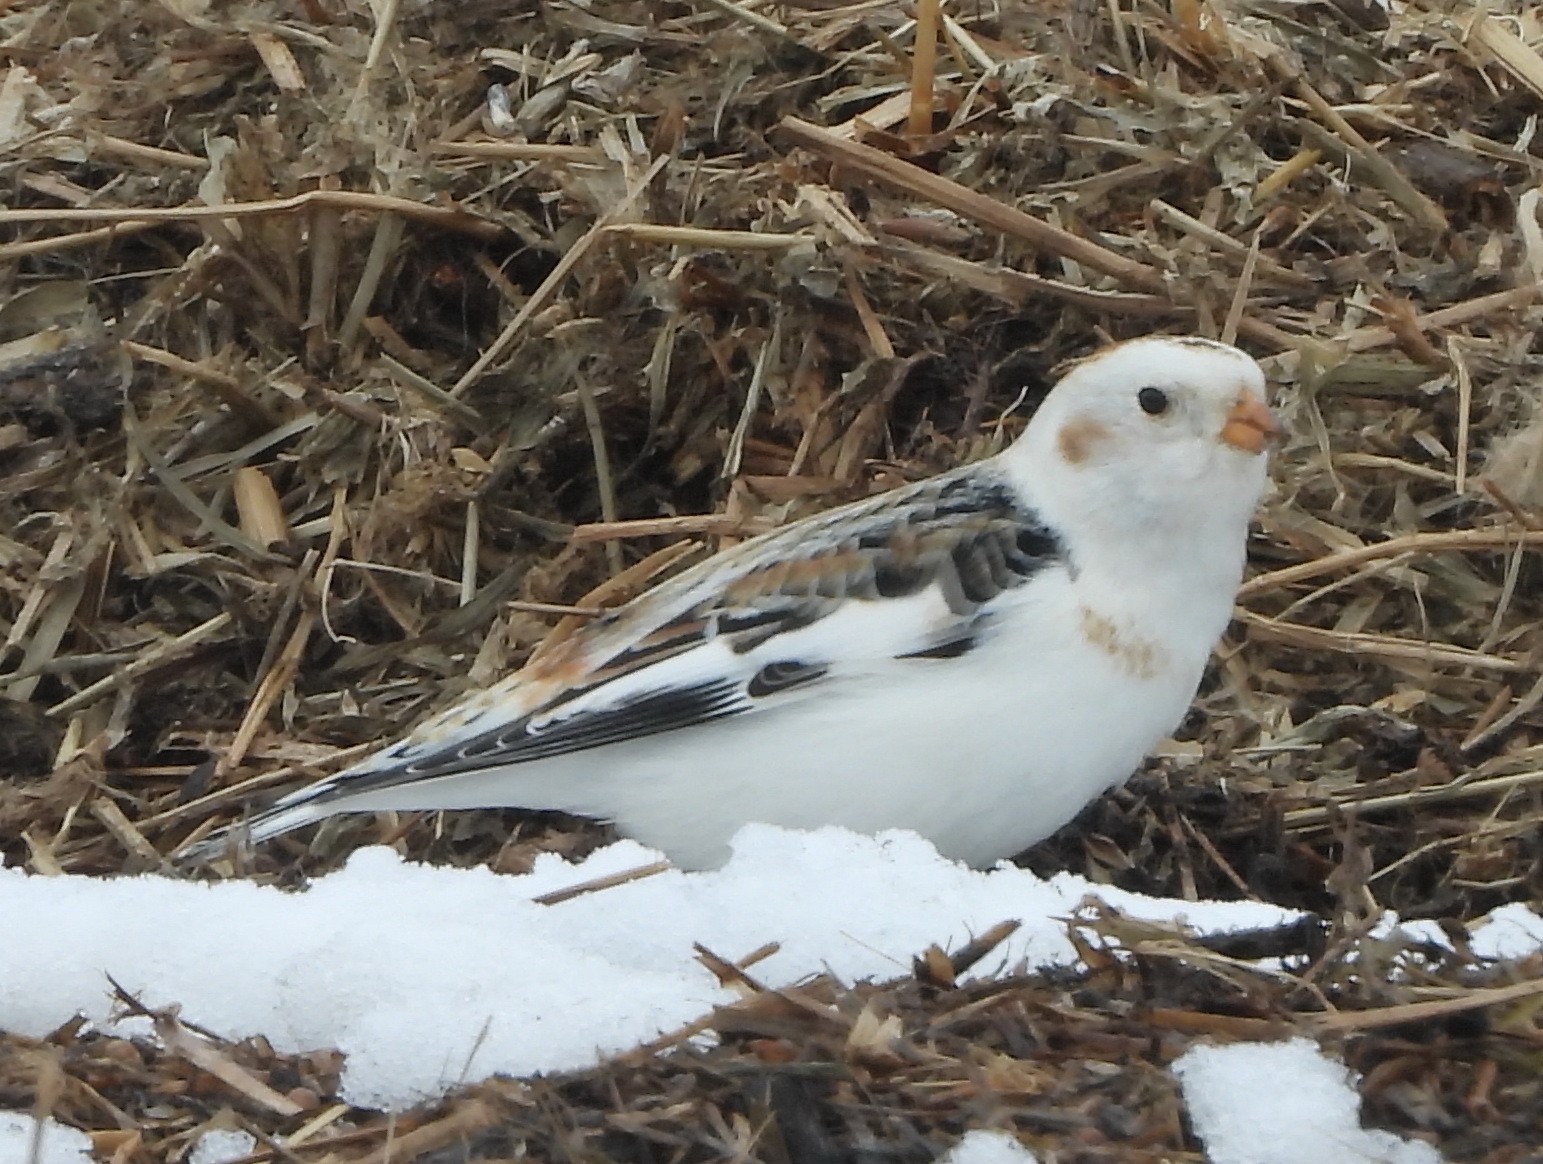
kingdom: Animalia
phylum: Chordata
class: Aves
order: Passeriformes
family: Calcariidae
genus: Plectrophenax
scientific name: Plectrophenax nivalis
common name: Snow bunting
